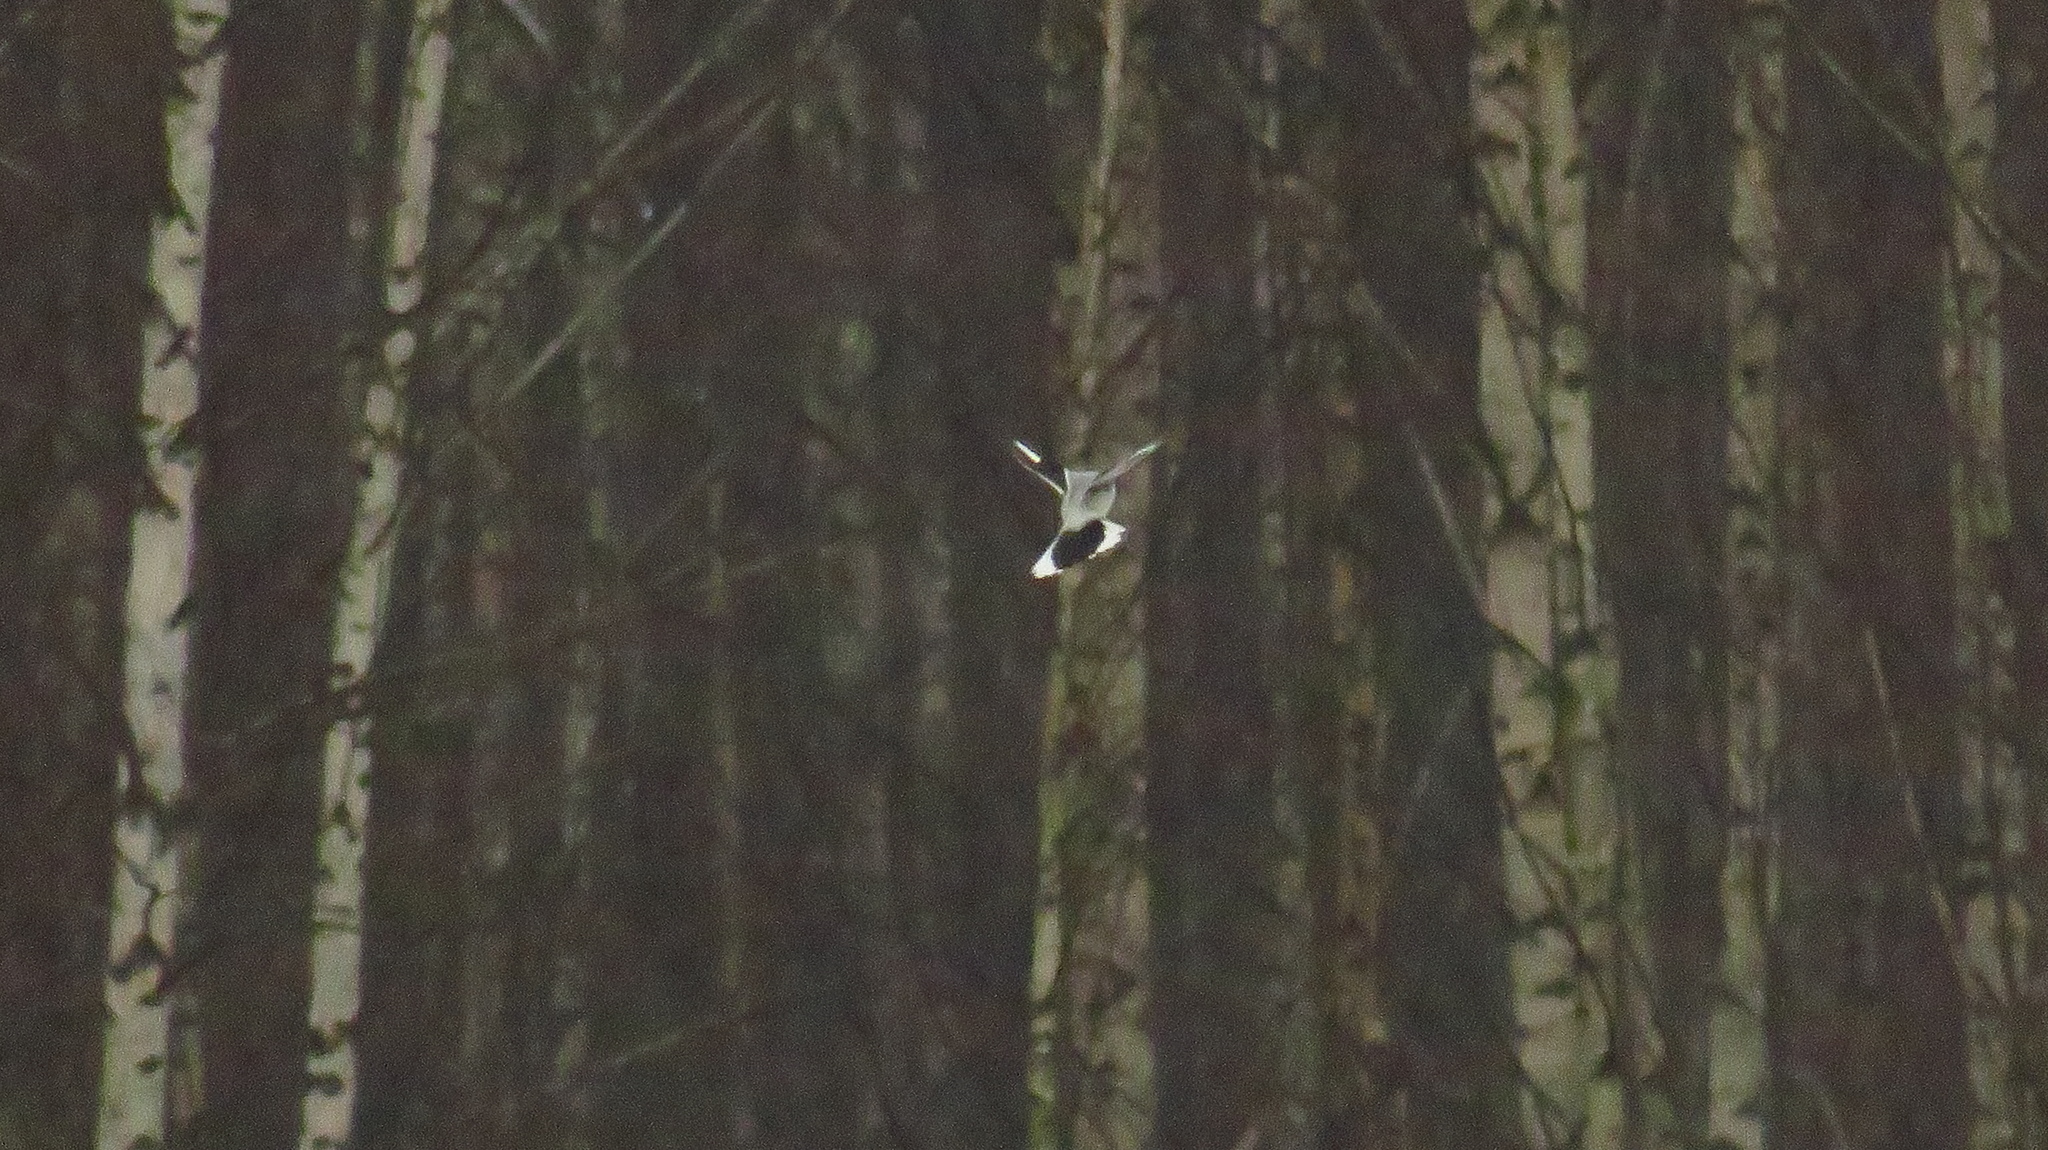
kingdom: Animalia
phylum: Chordata
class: Aves
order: Passeriformes
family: Laniidae
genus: Lanius
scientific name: Lanius excubitor
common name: Great grey shrike
